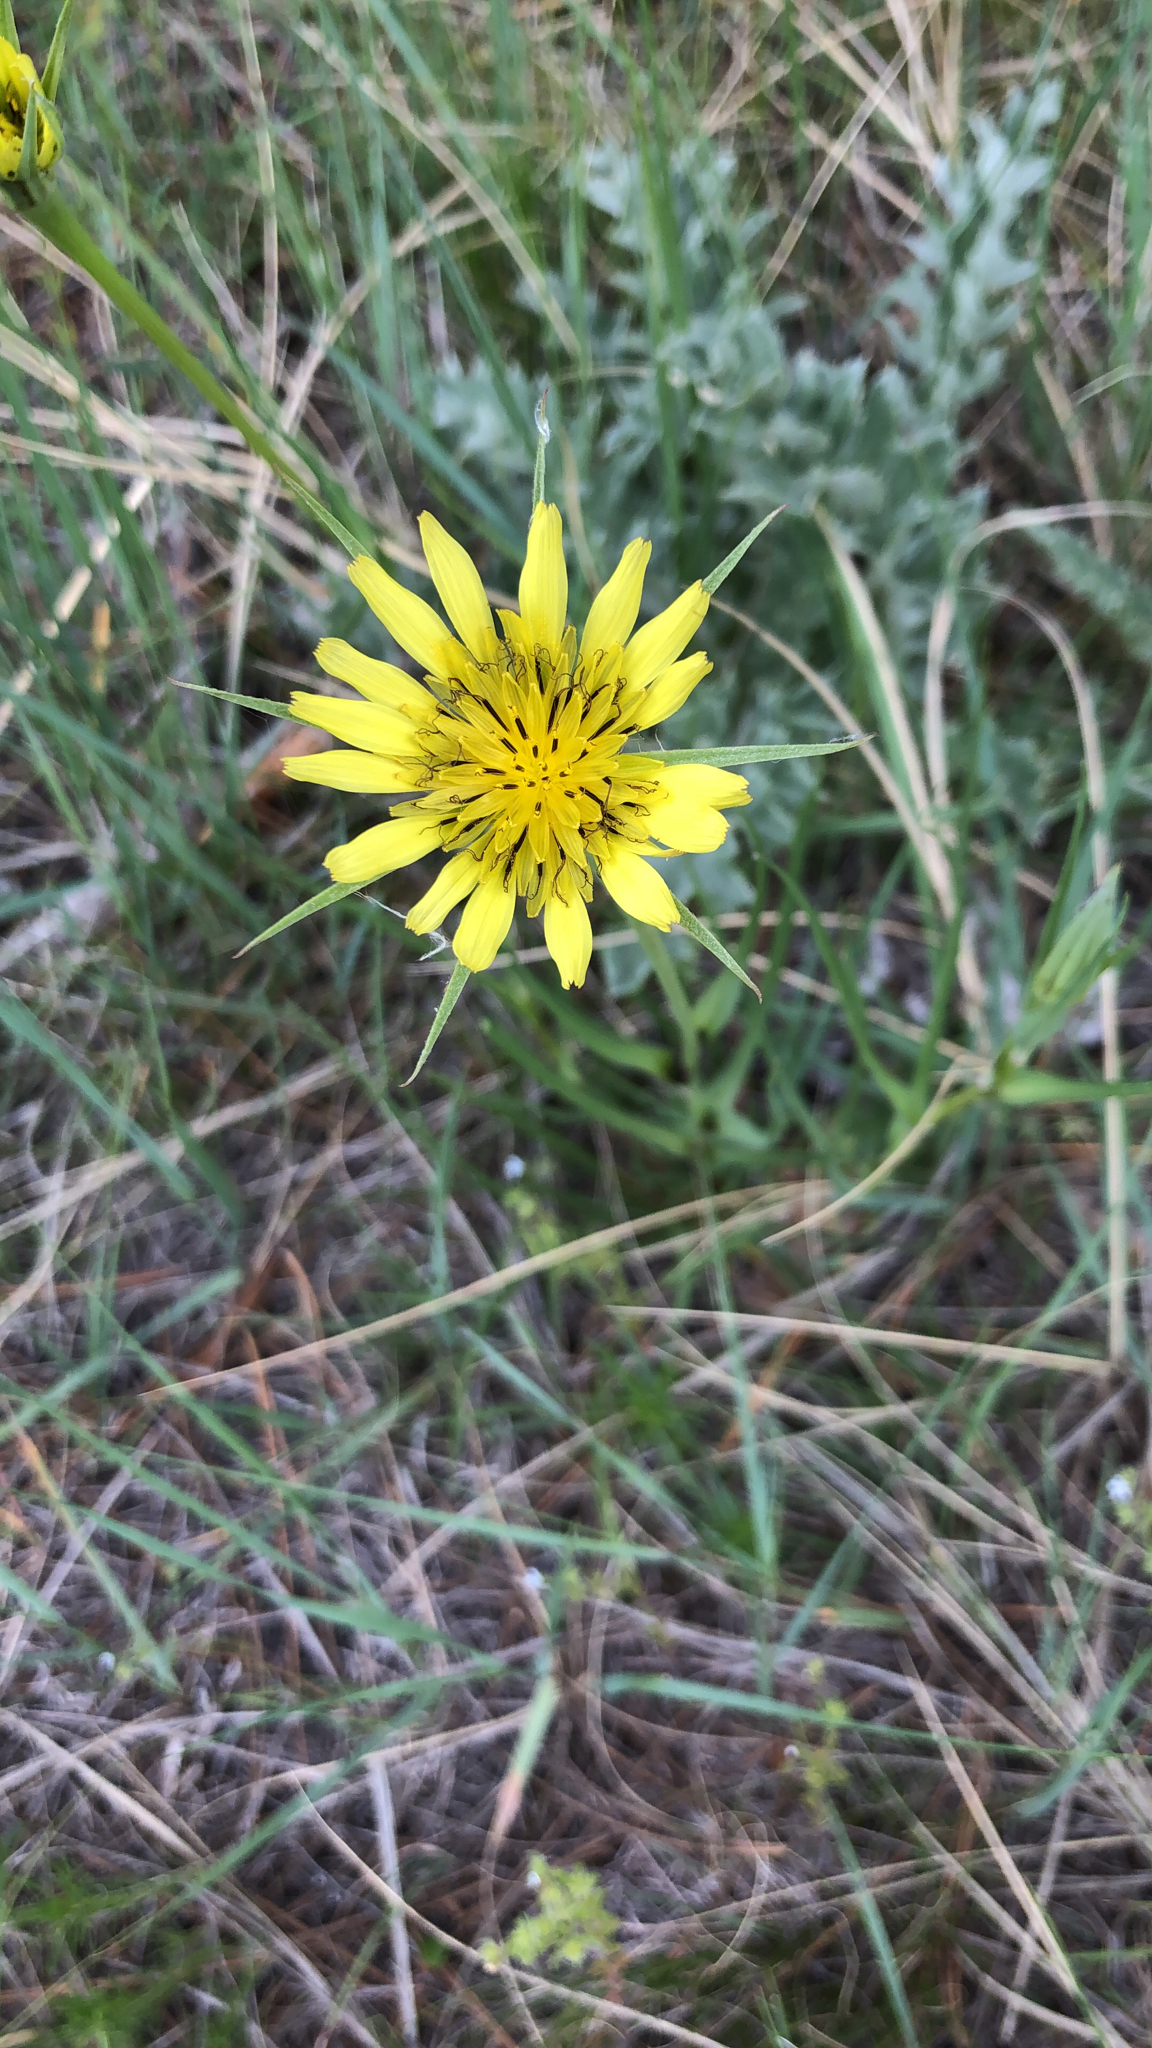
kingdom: Plantae
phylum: Tracheophyta
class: Magnoliopsida
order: Asterales
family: Asteraceae
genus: Tragopogon
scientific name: Tragopogon dubius
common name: Yellow salsify
